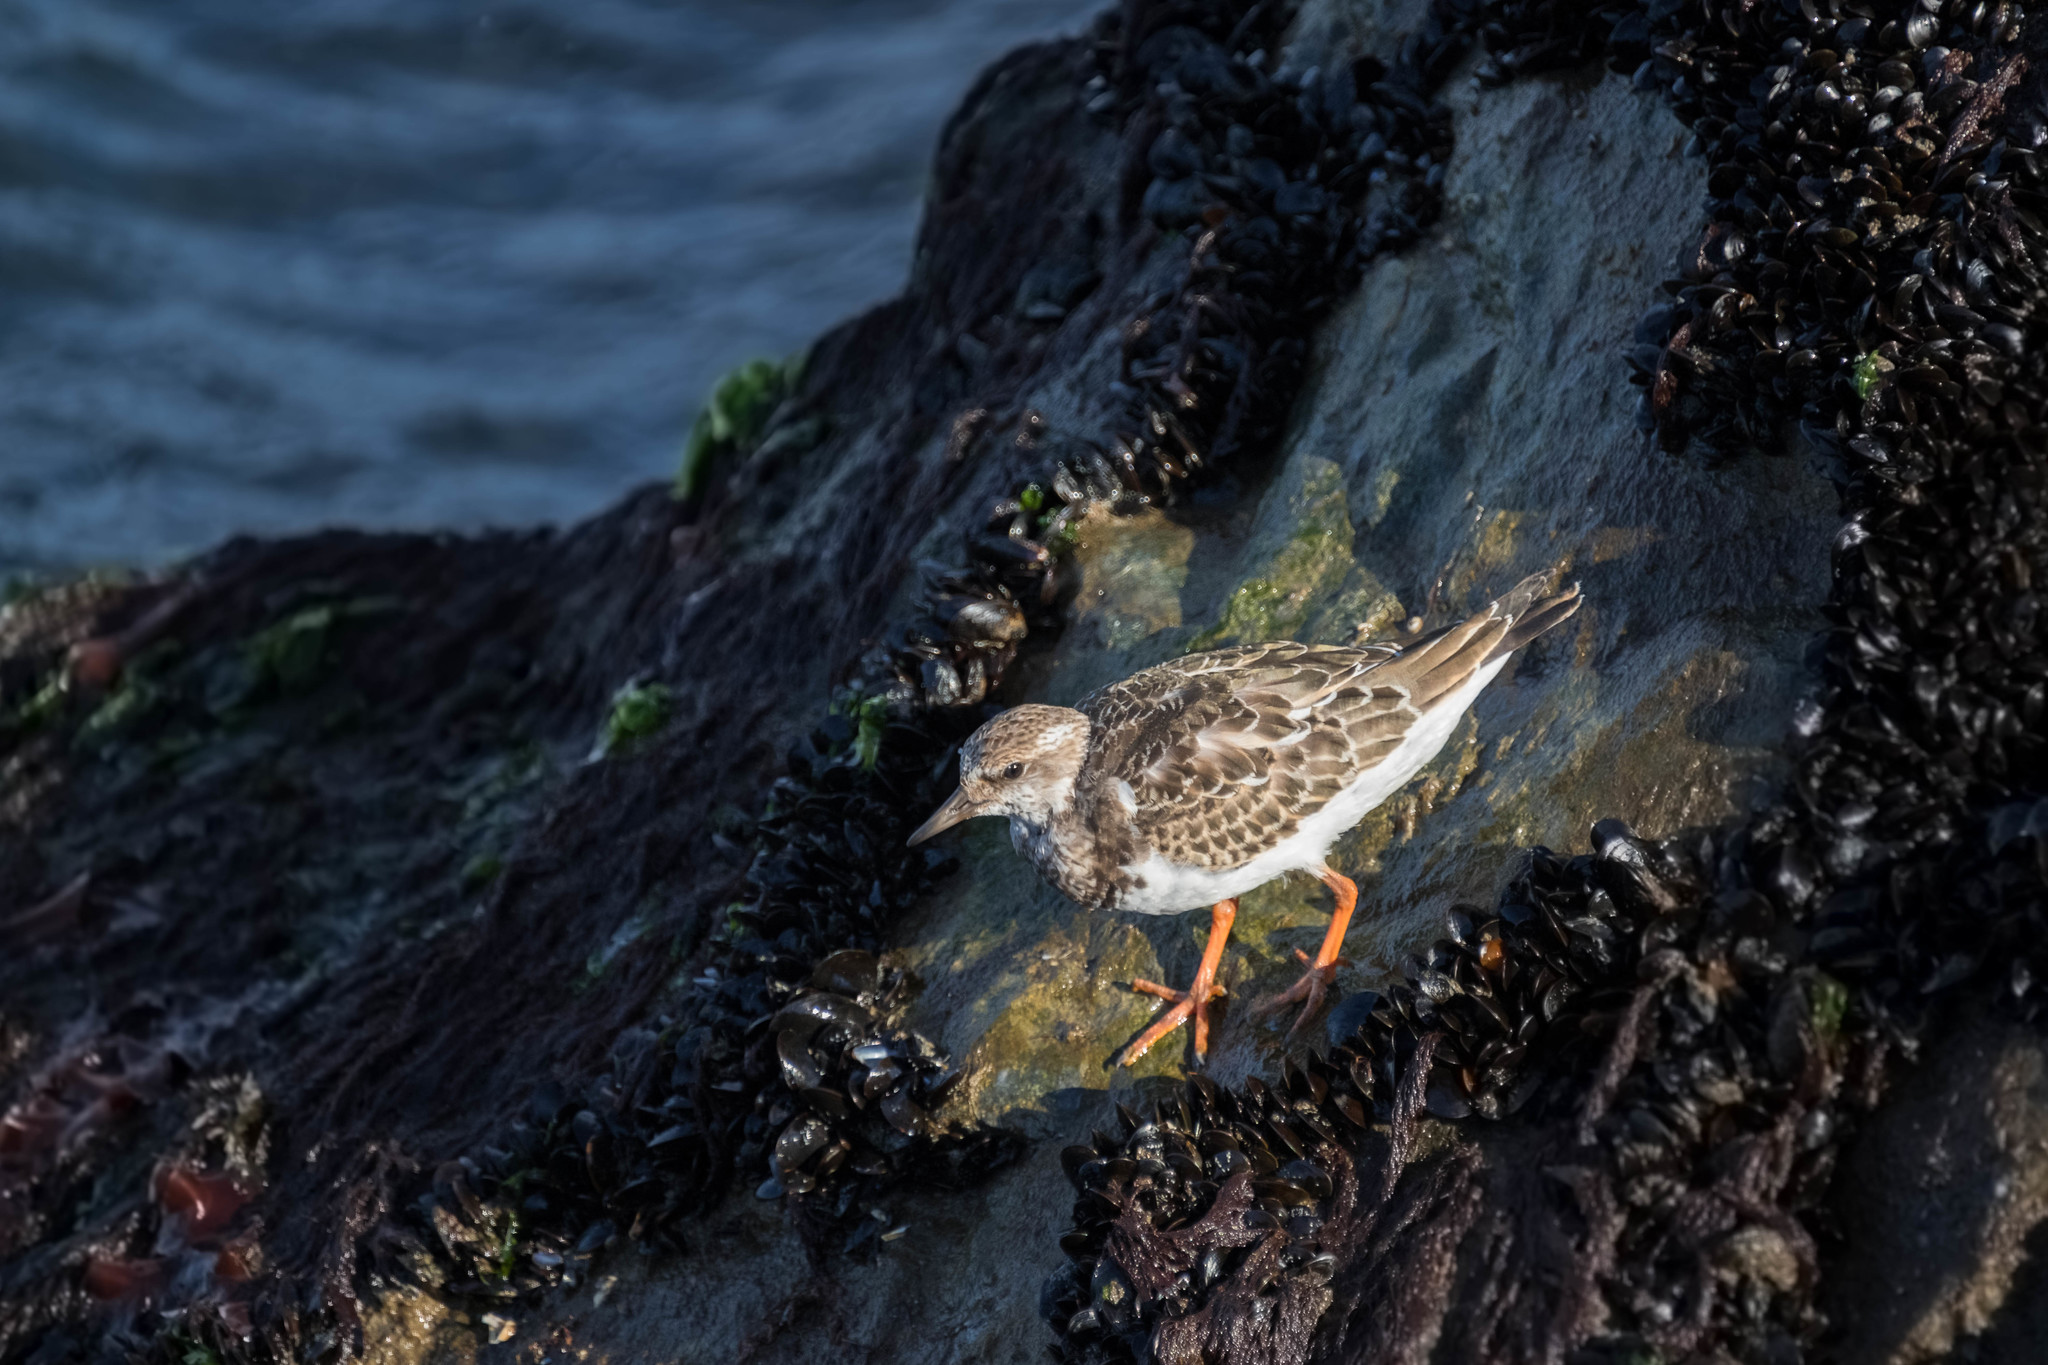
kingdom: Animalia
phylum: Chordata
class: Aves
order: Charadriiformes
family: Scolopacidae
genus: Arenaria
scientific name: Arenaria interpres
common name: Ruddy turnstone
